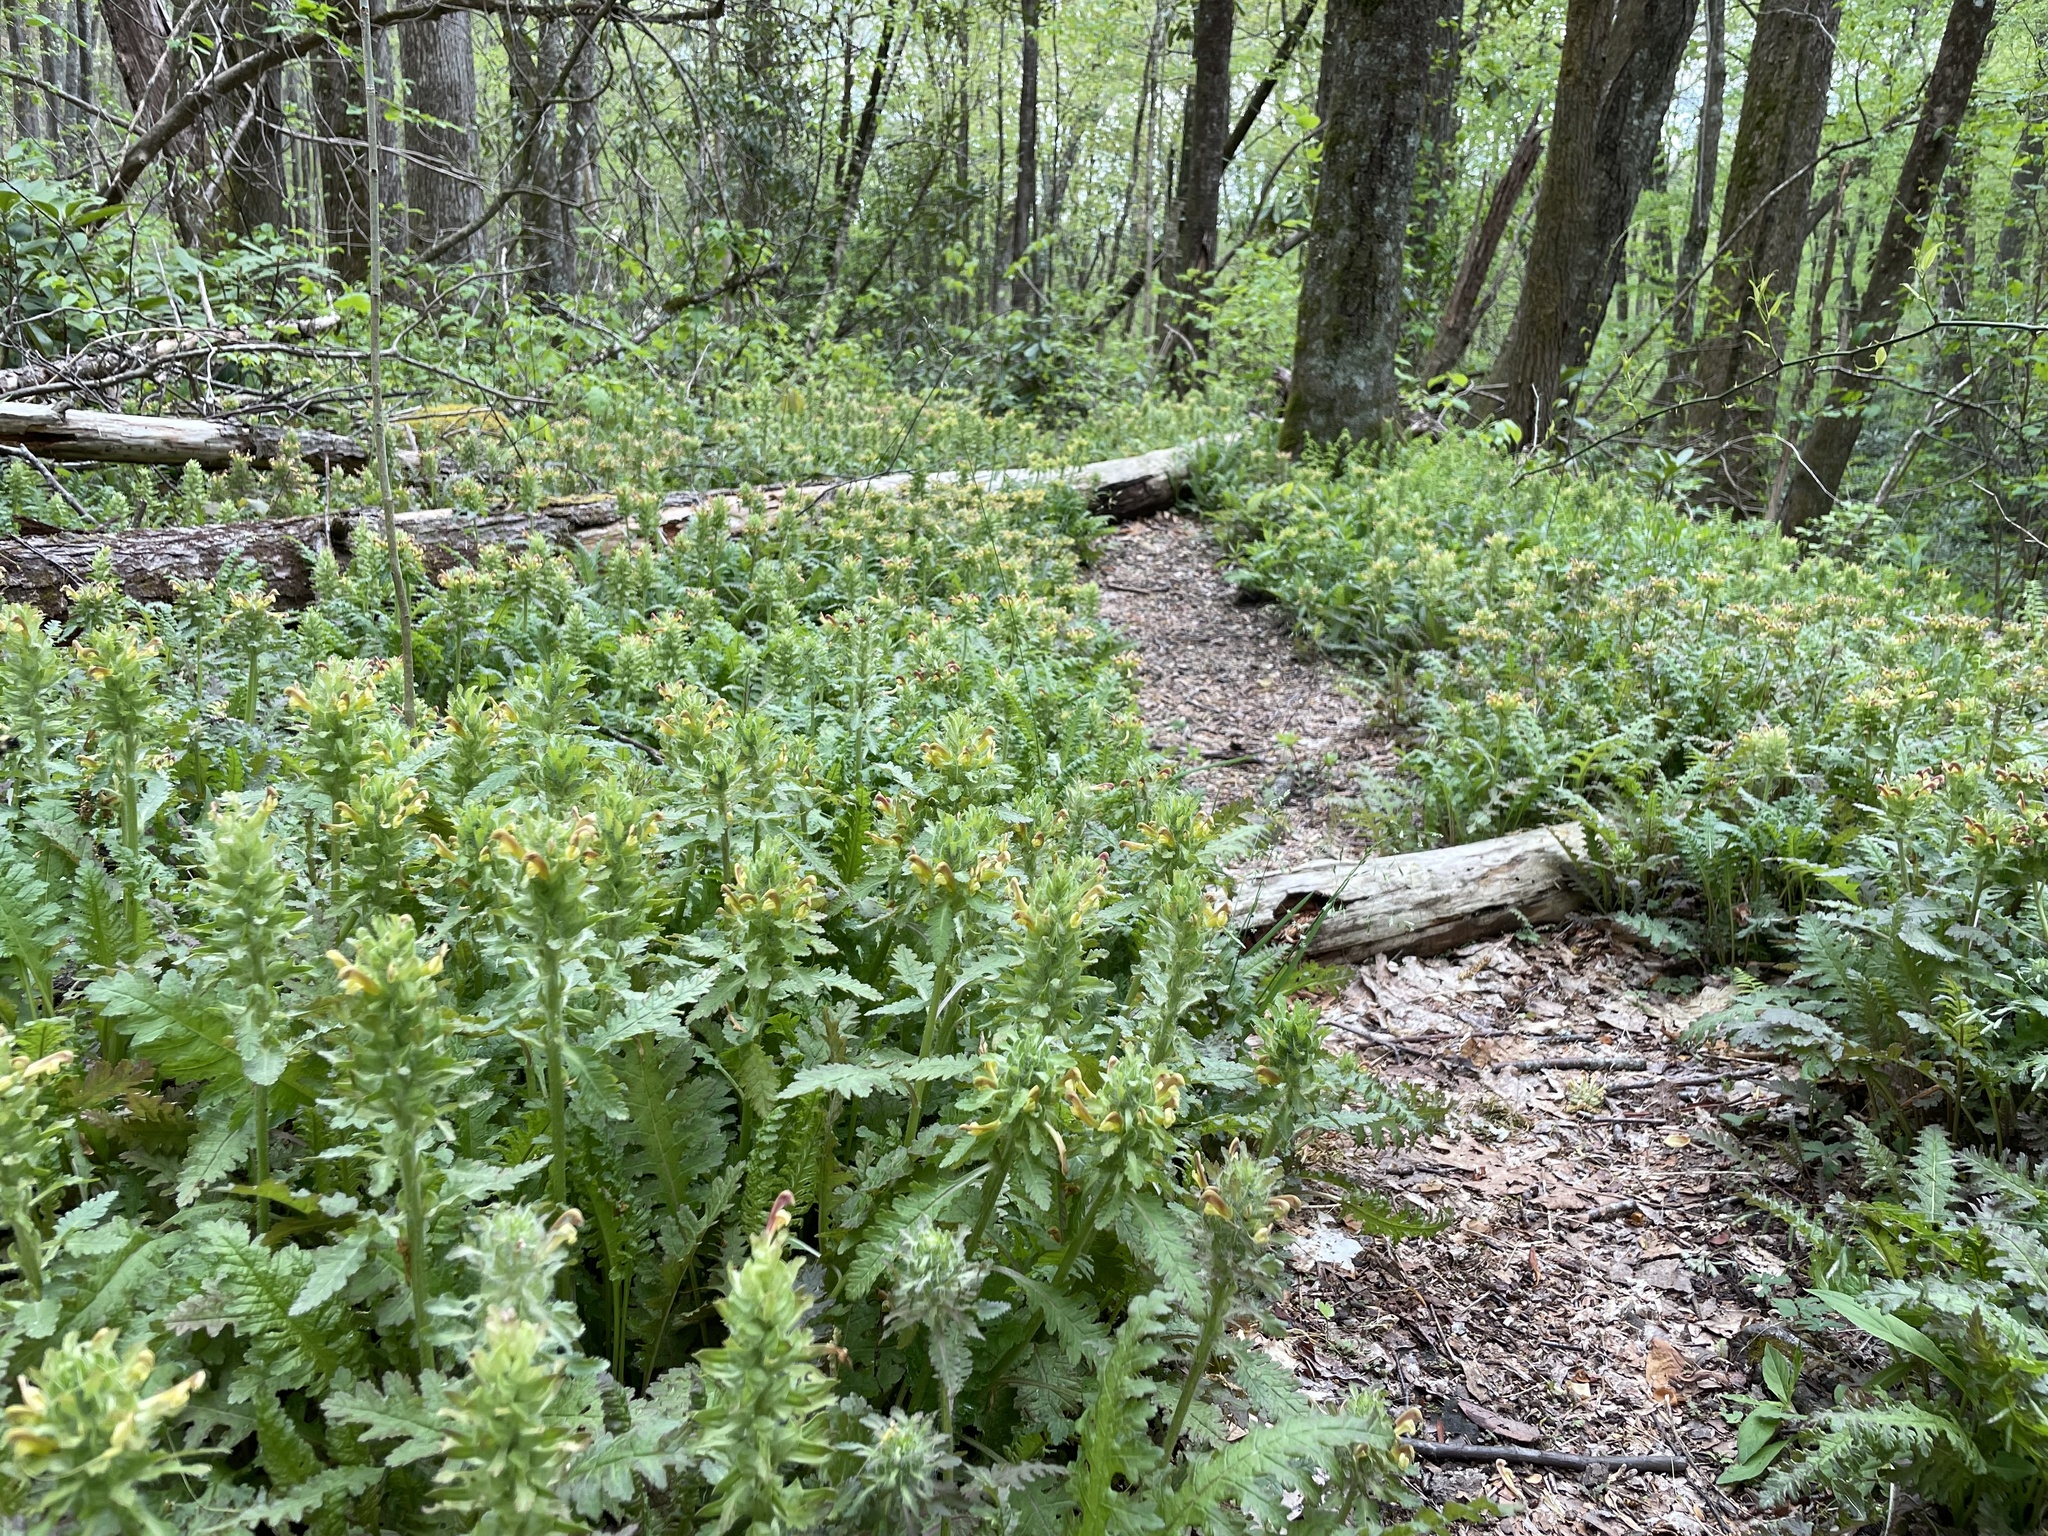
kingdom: Plantae
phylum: Tracheophyta
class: Magnoliopsida
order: Lamiales
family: Orobanchaceae
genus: Pedicularis
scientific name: Pedicularis canadensis
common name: Early lousewort
